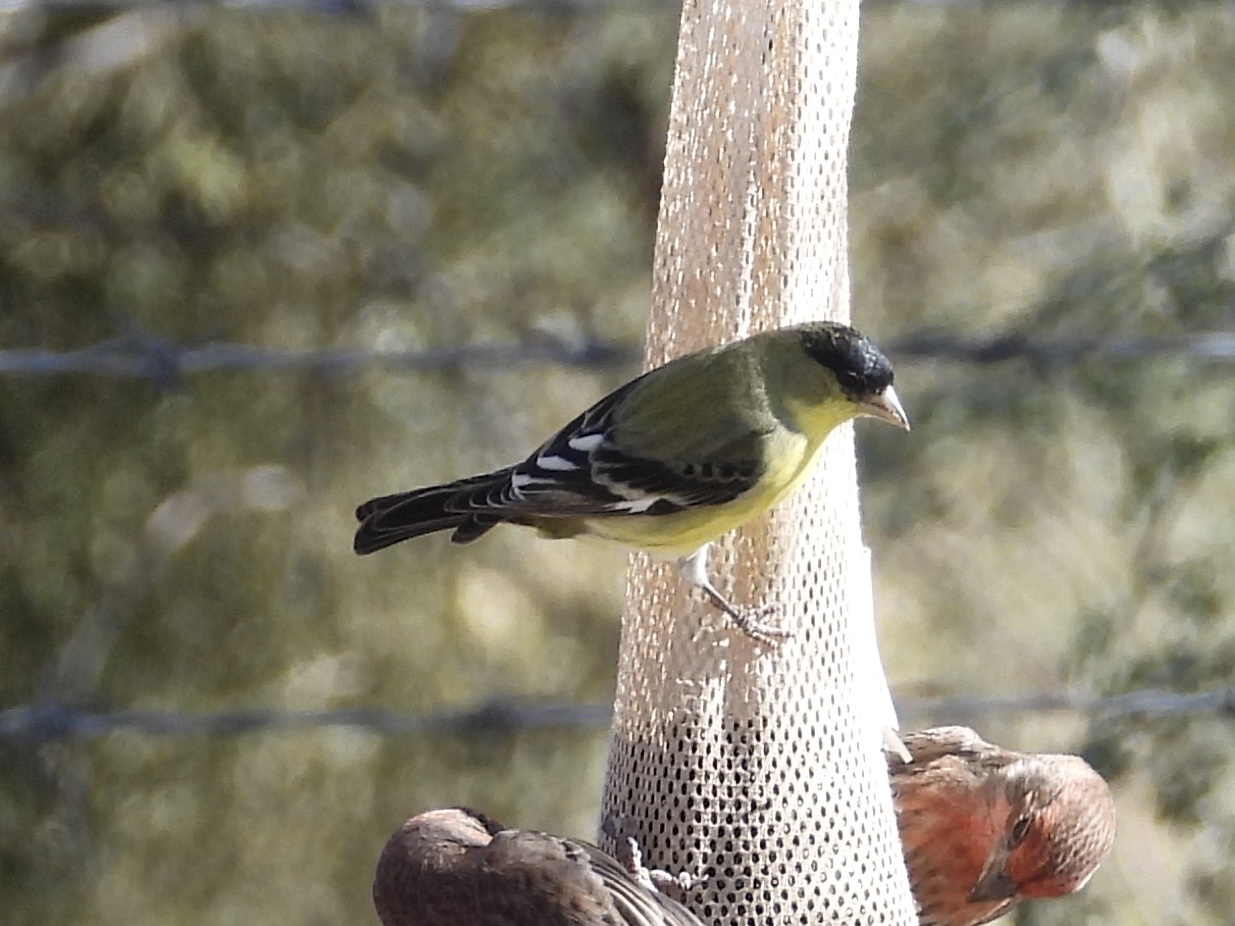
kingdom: Animalia
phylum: Chordata
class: Aves
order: Passeriformes
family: Fringillidae
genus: Spinus
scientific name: Spinus psaltria
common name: Lesser goldfinch
